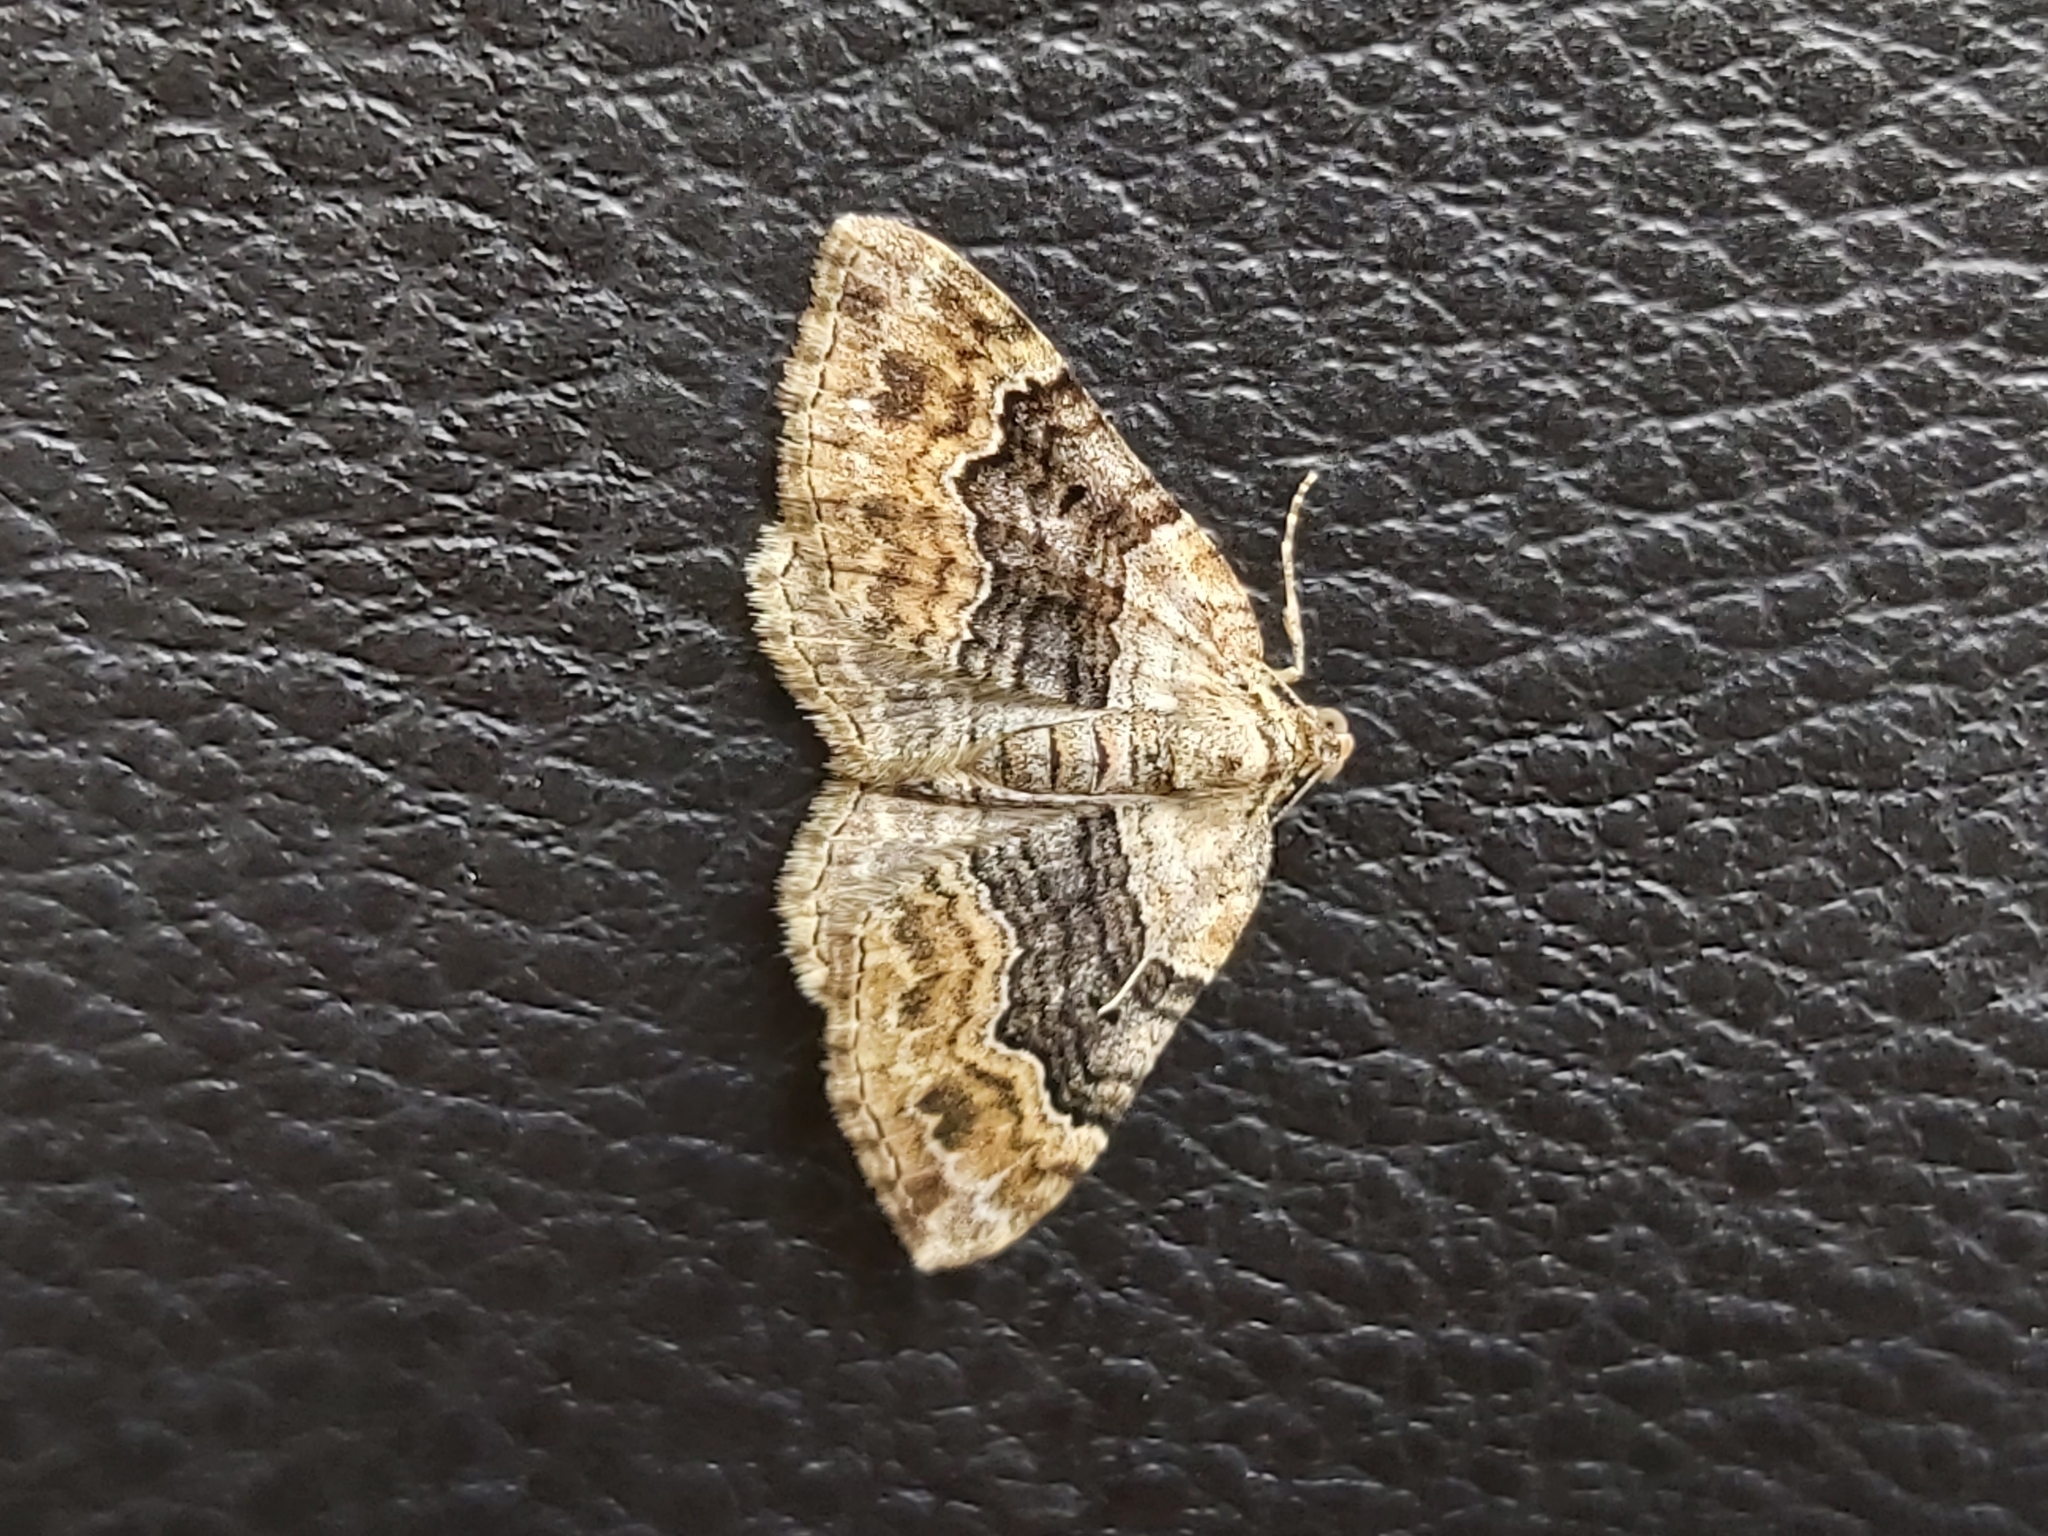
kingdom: Animalia
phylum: Arthropoda
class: Insecta
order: Lepidoptera
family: Geometridae
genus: Xanthorhoe
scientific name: Xanthorhoe quadrifasiata
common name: Large twin-spot carpet
